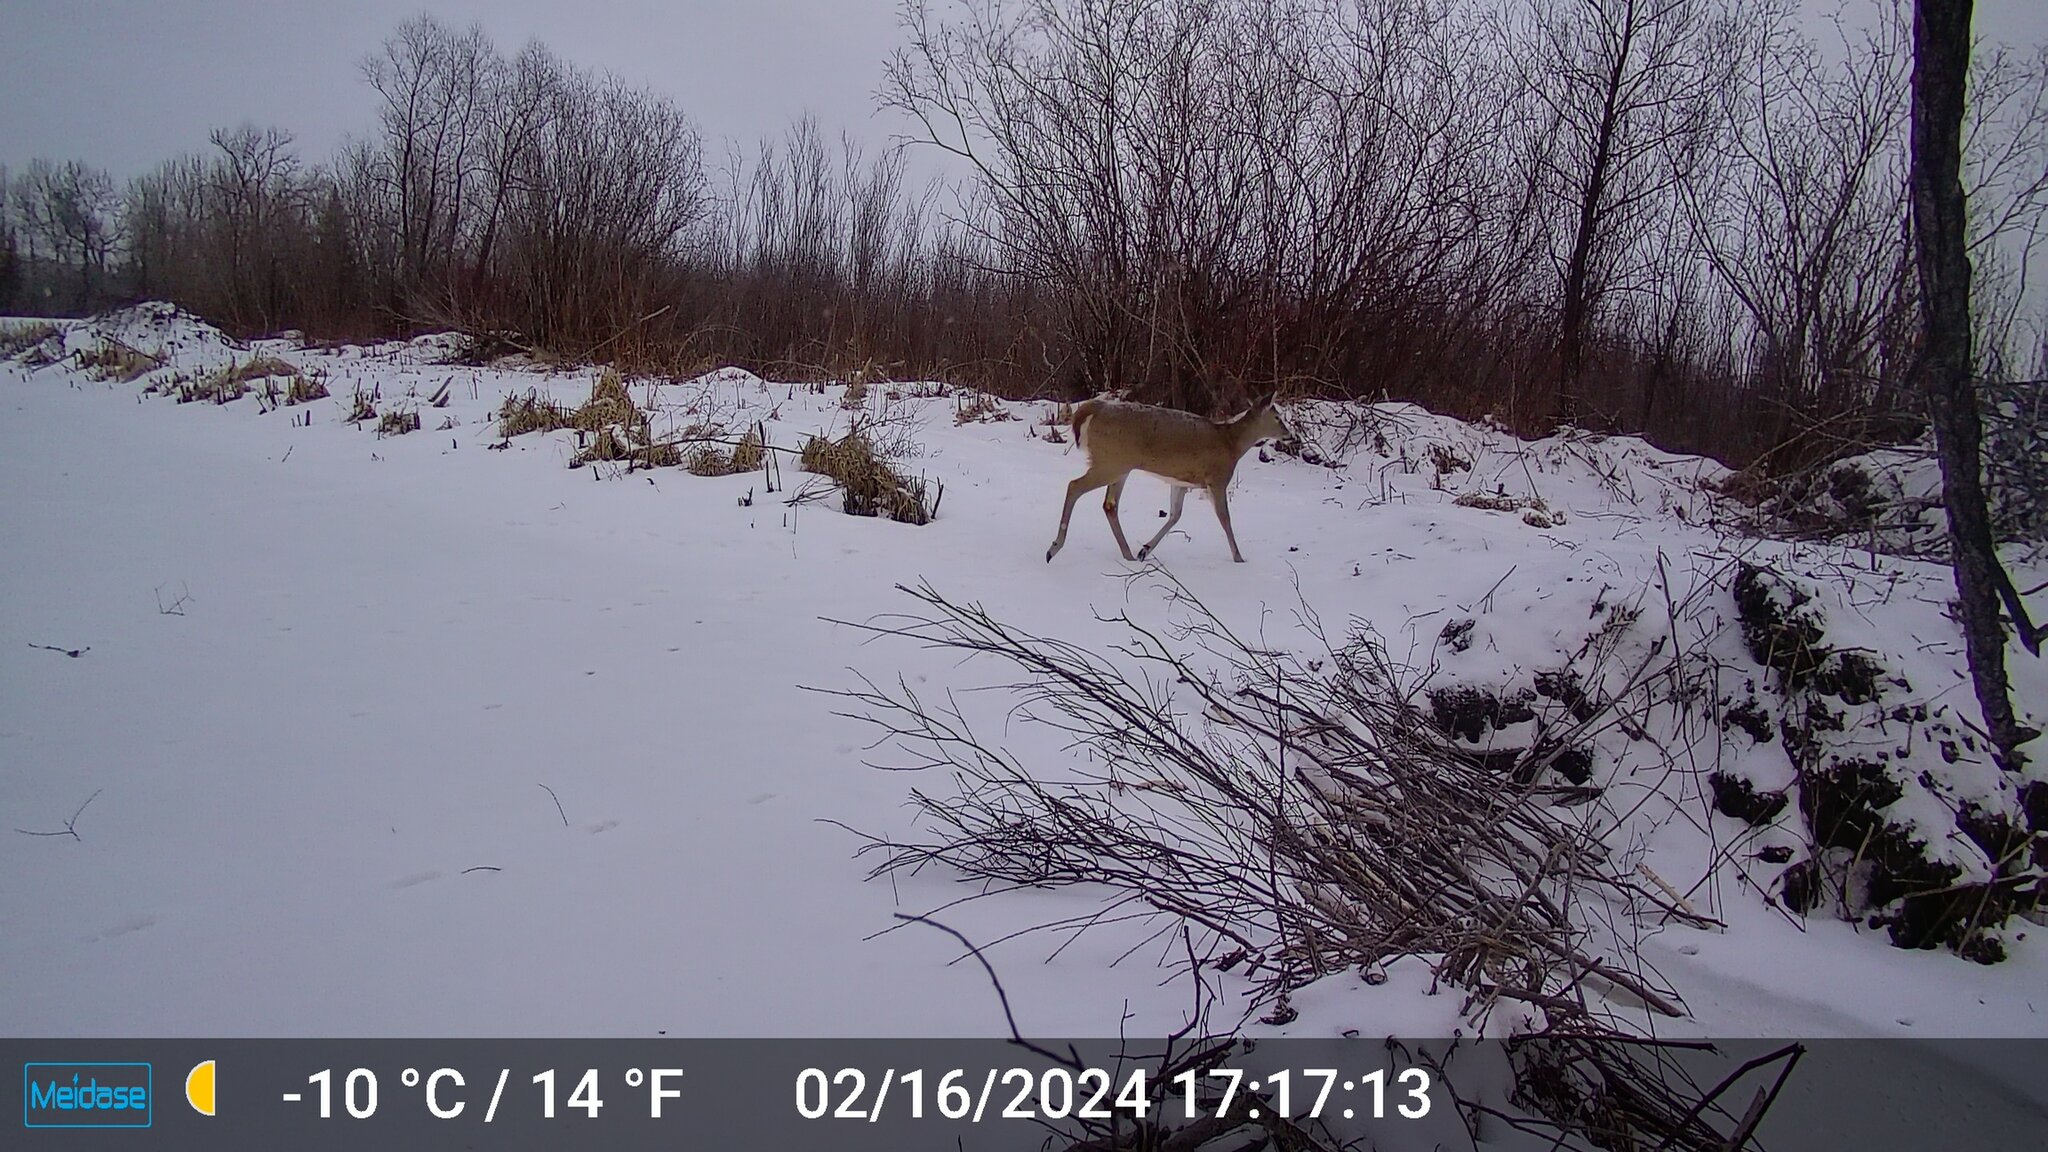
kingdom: Animalia
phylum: Chordata
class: Mammalia
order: Artiodactyla
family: Cervidae
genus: Odocoileus
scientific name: Odocoileus virginianus
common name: White-tailed deer
